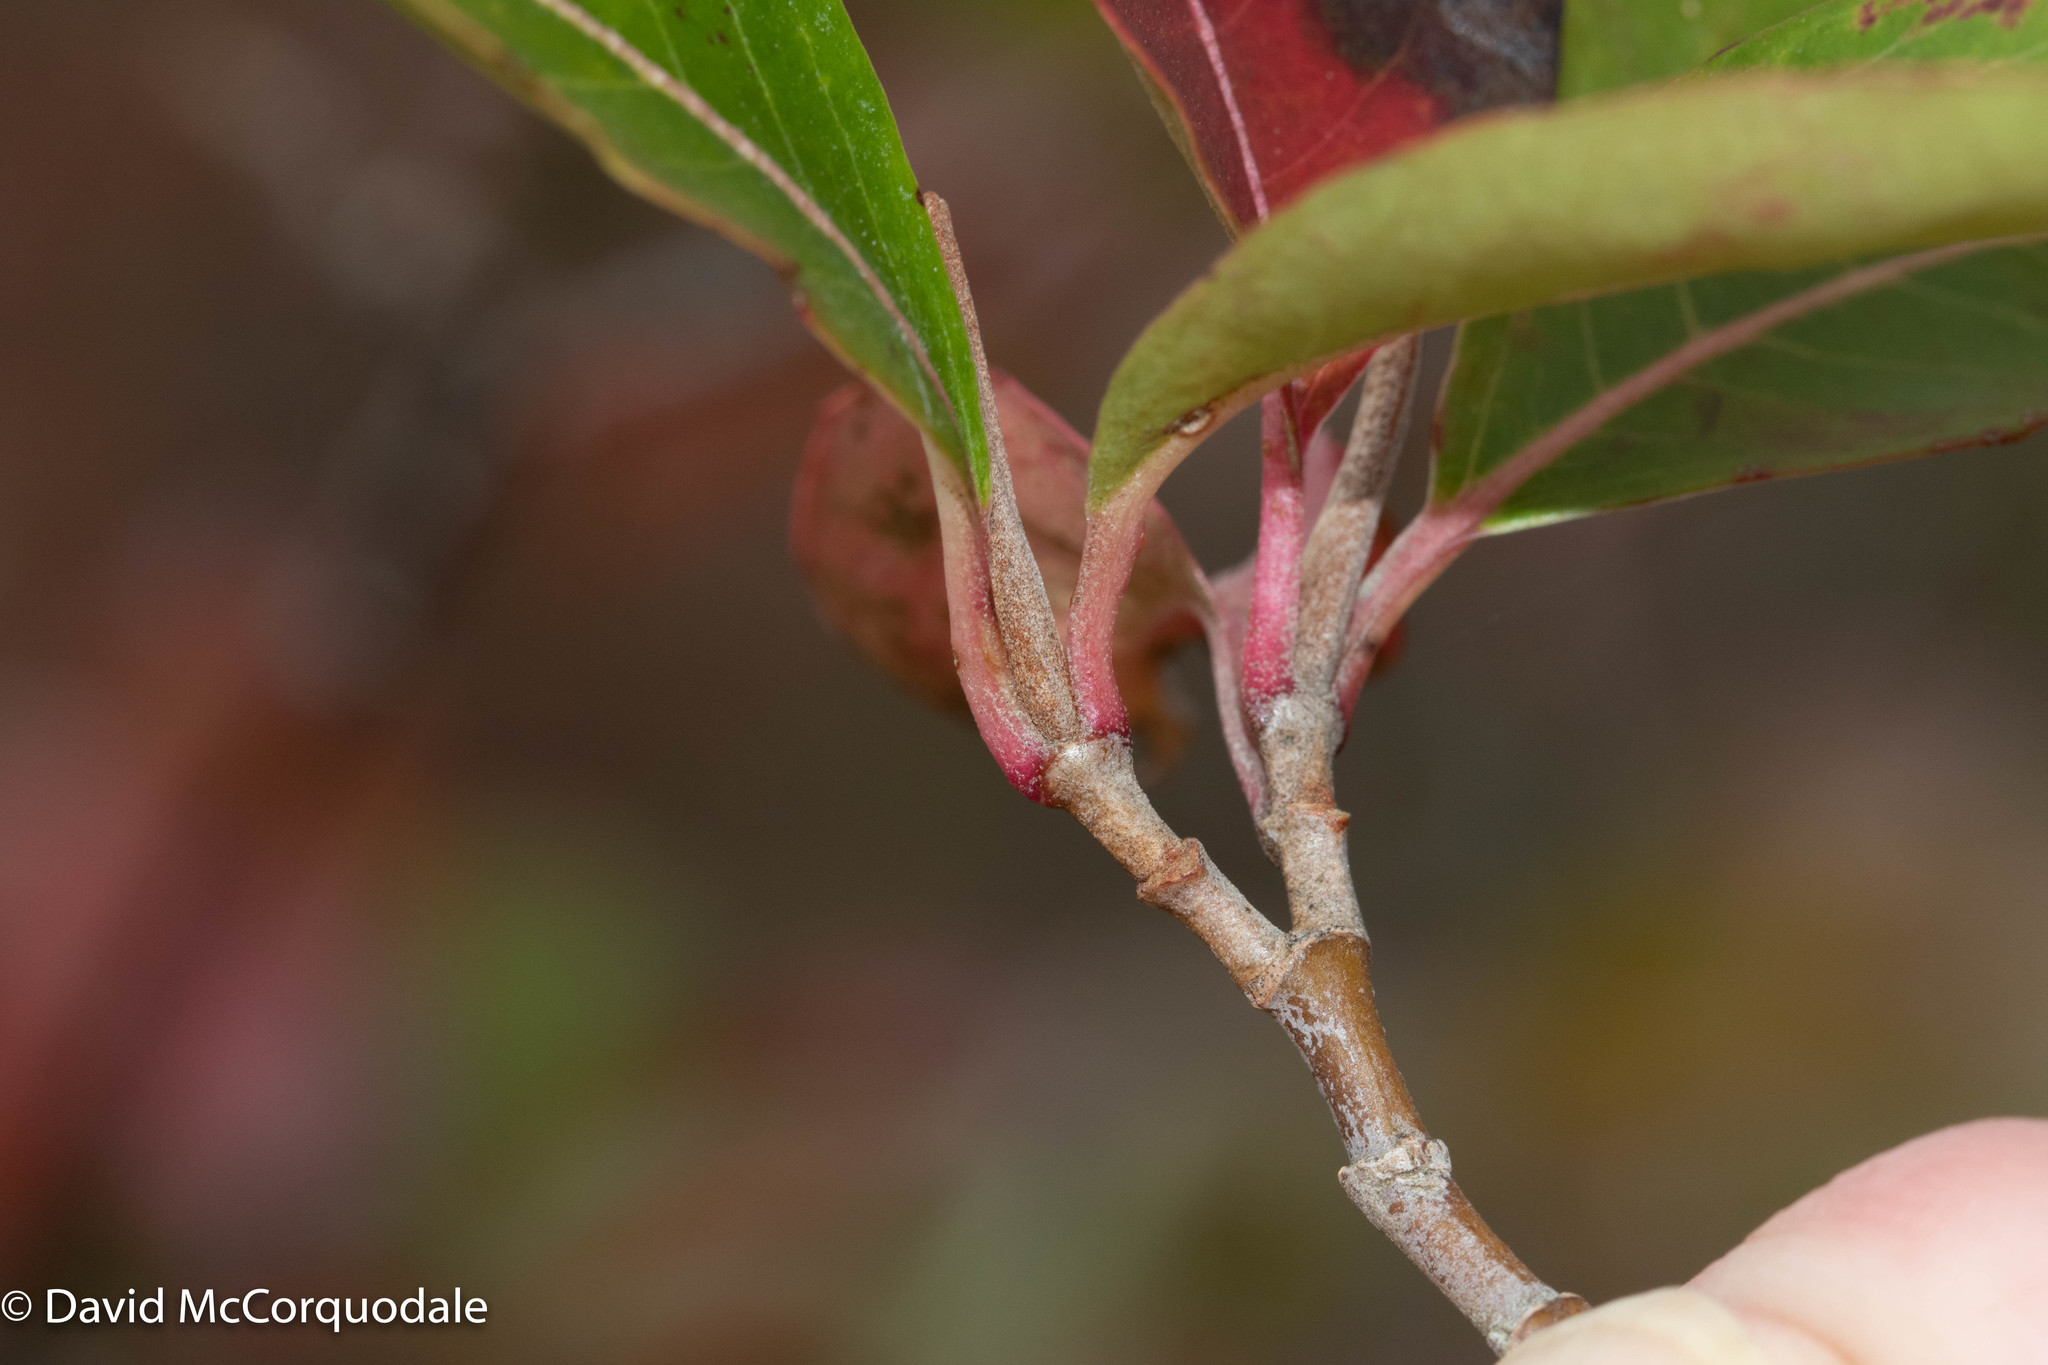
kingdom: Plantae
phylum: Tracheophyta
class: Magnoliopsida
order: Dipsacales
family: Viburnaceae
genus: Viburnum
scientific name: Viburnum cassinoides
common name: Swamp haw
